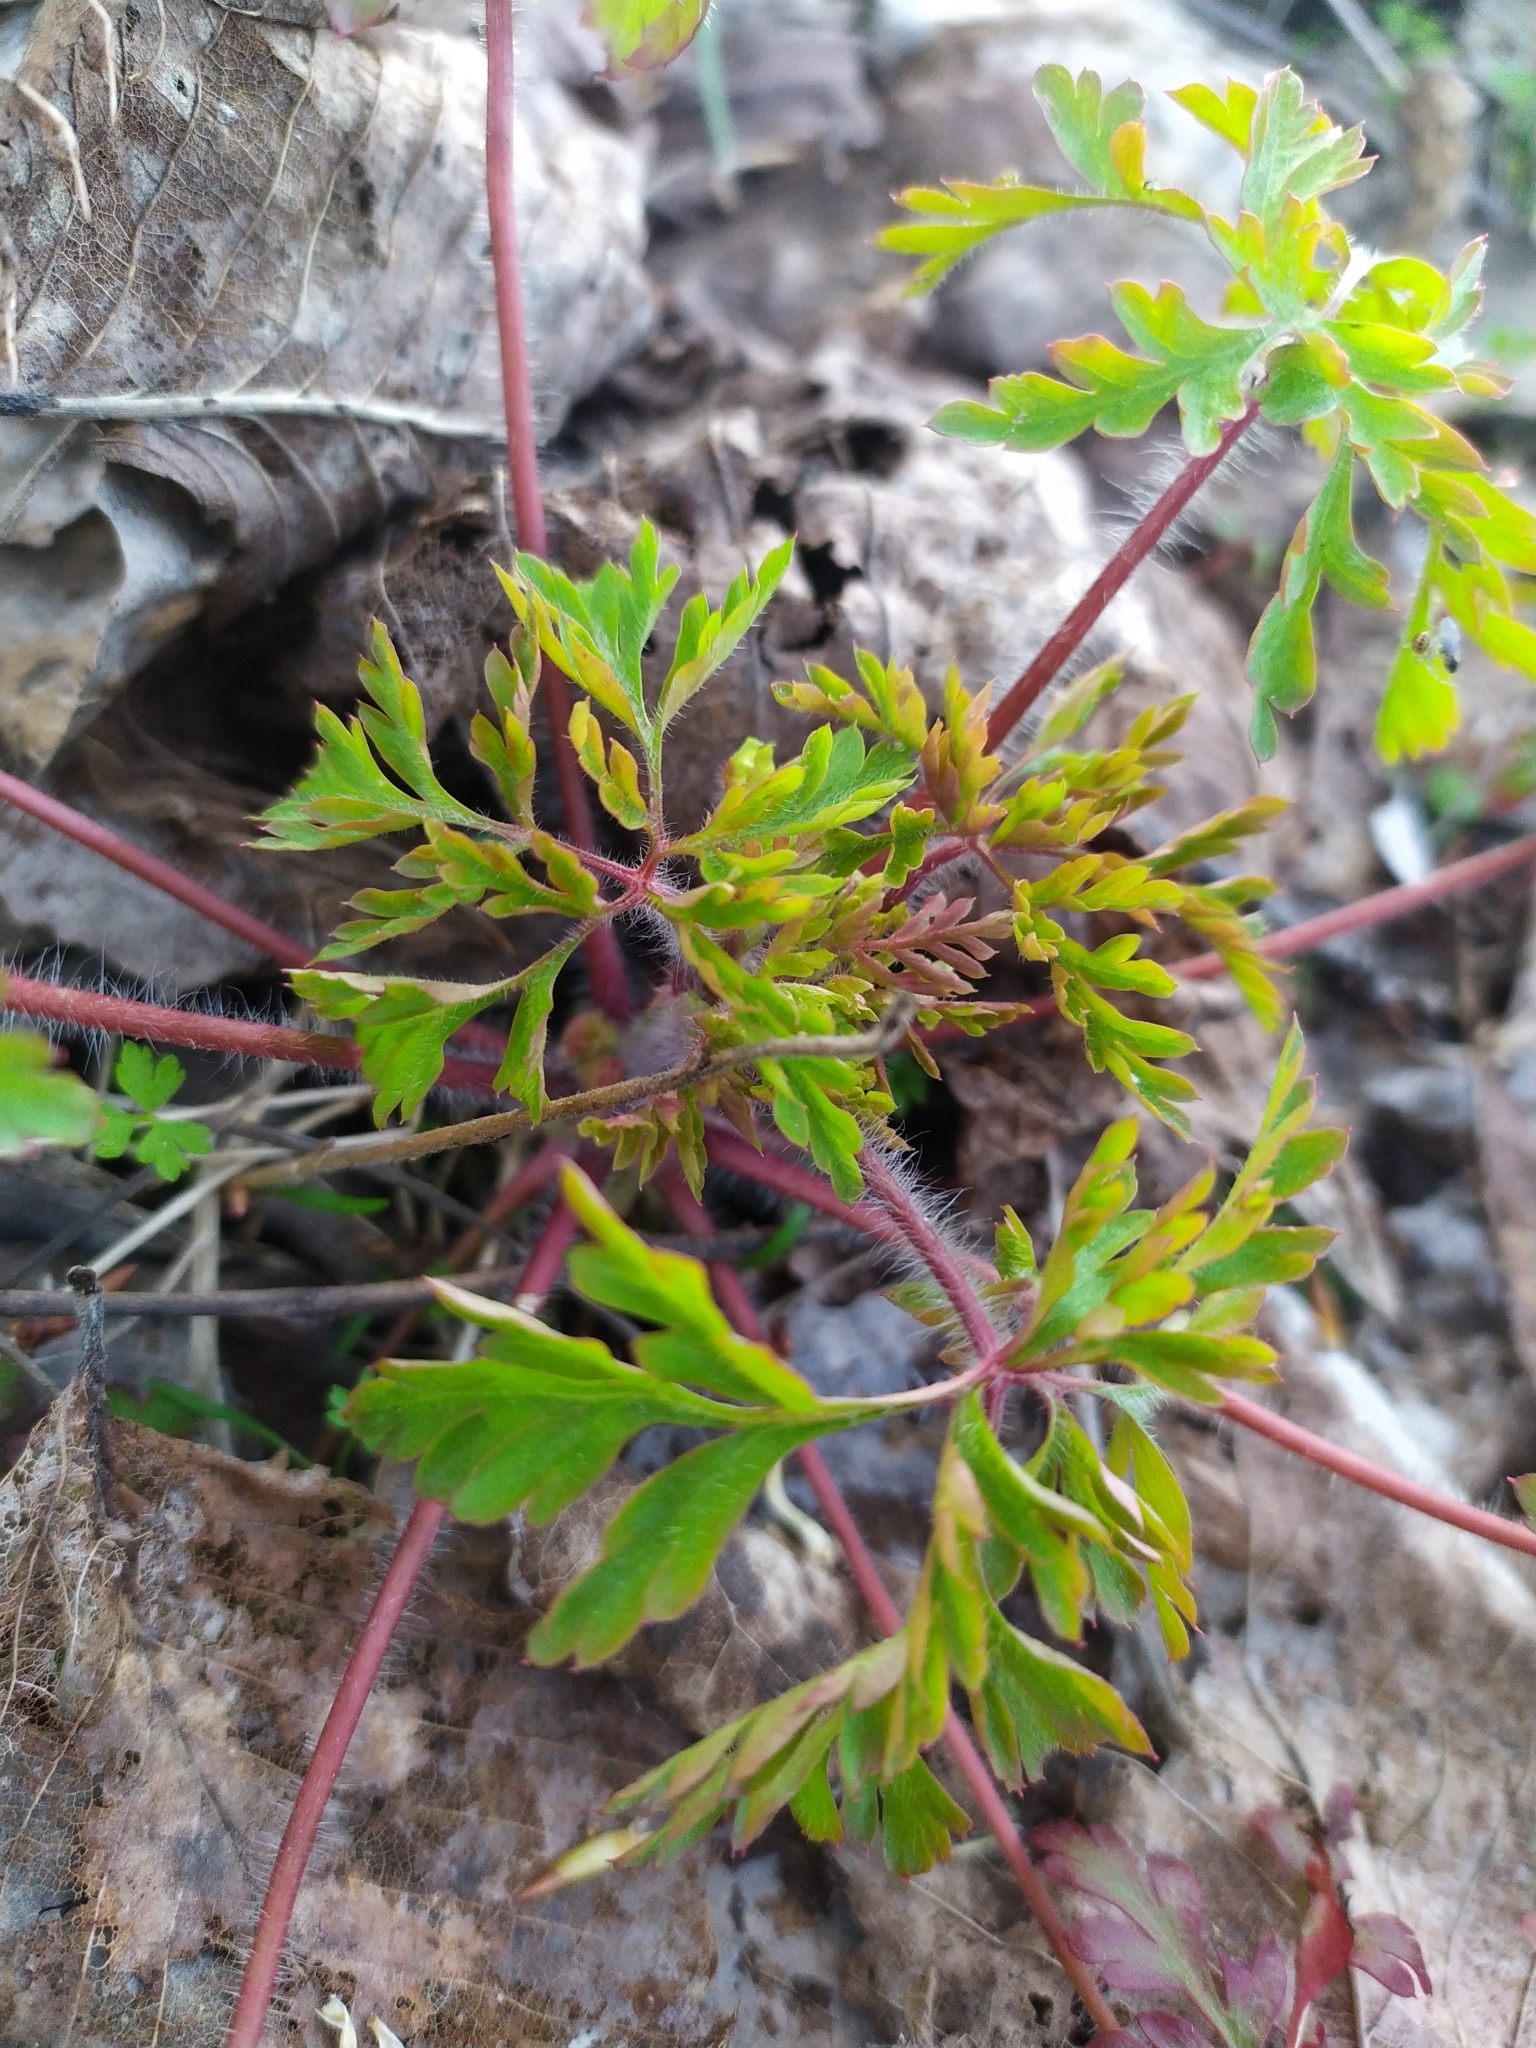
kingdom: Plantae
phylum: Tracheophyta
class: Magnoliopsida
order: Geraniales
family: Geraniaceae
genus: Geranium
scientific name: Geranium robertianum
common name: Herb-robert
